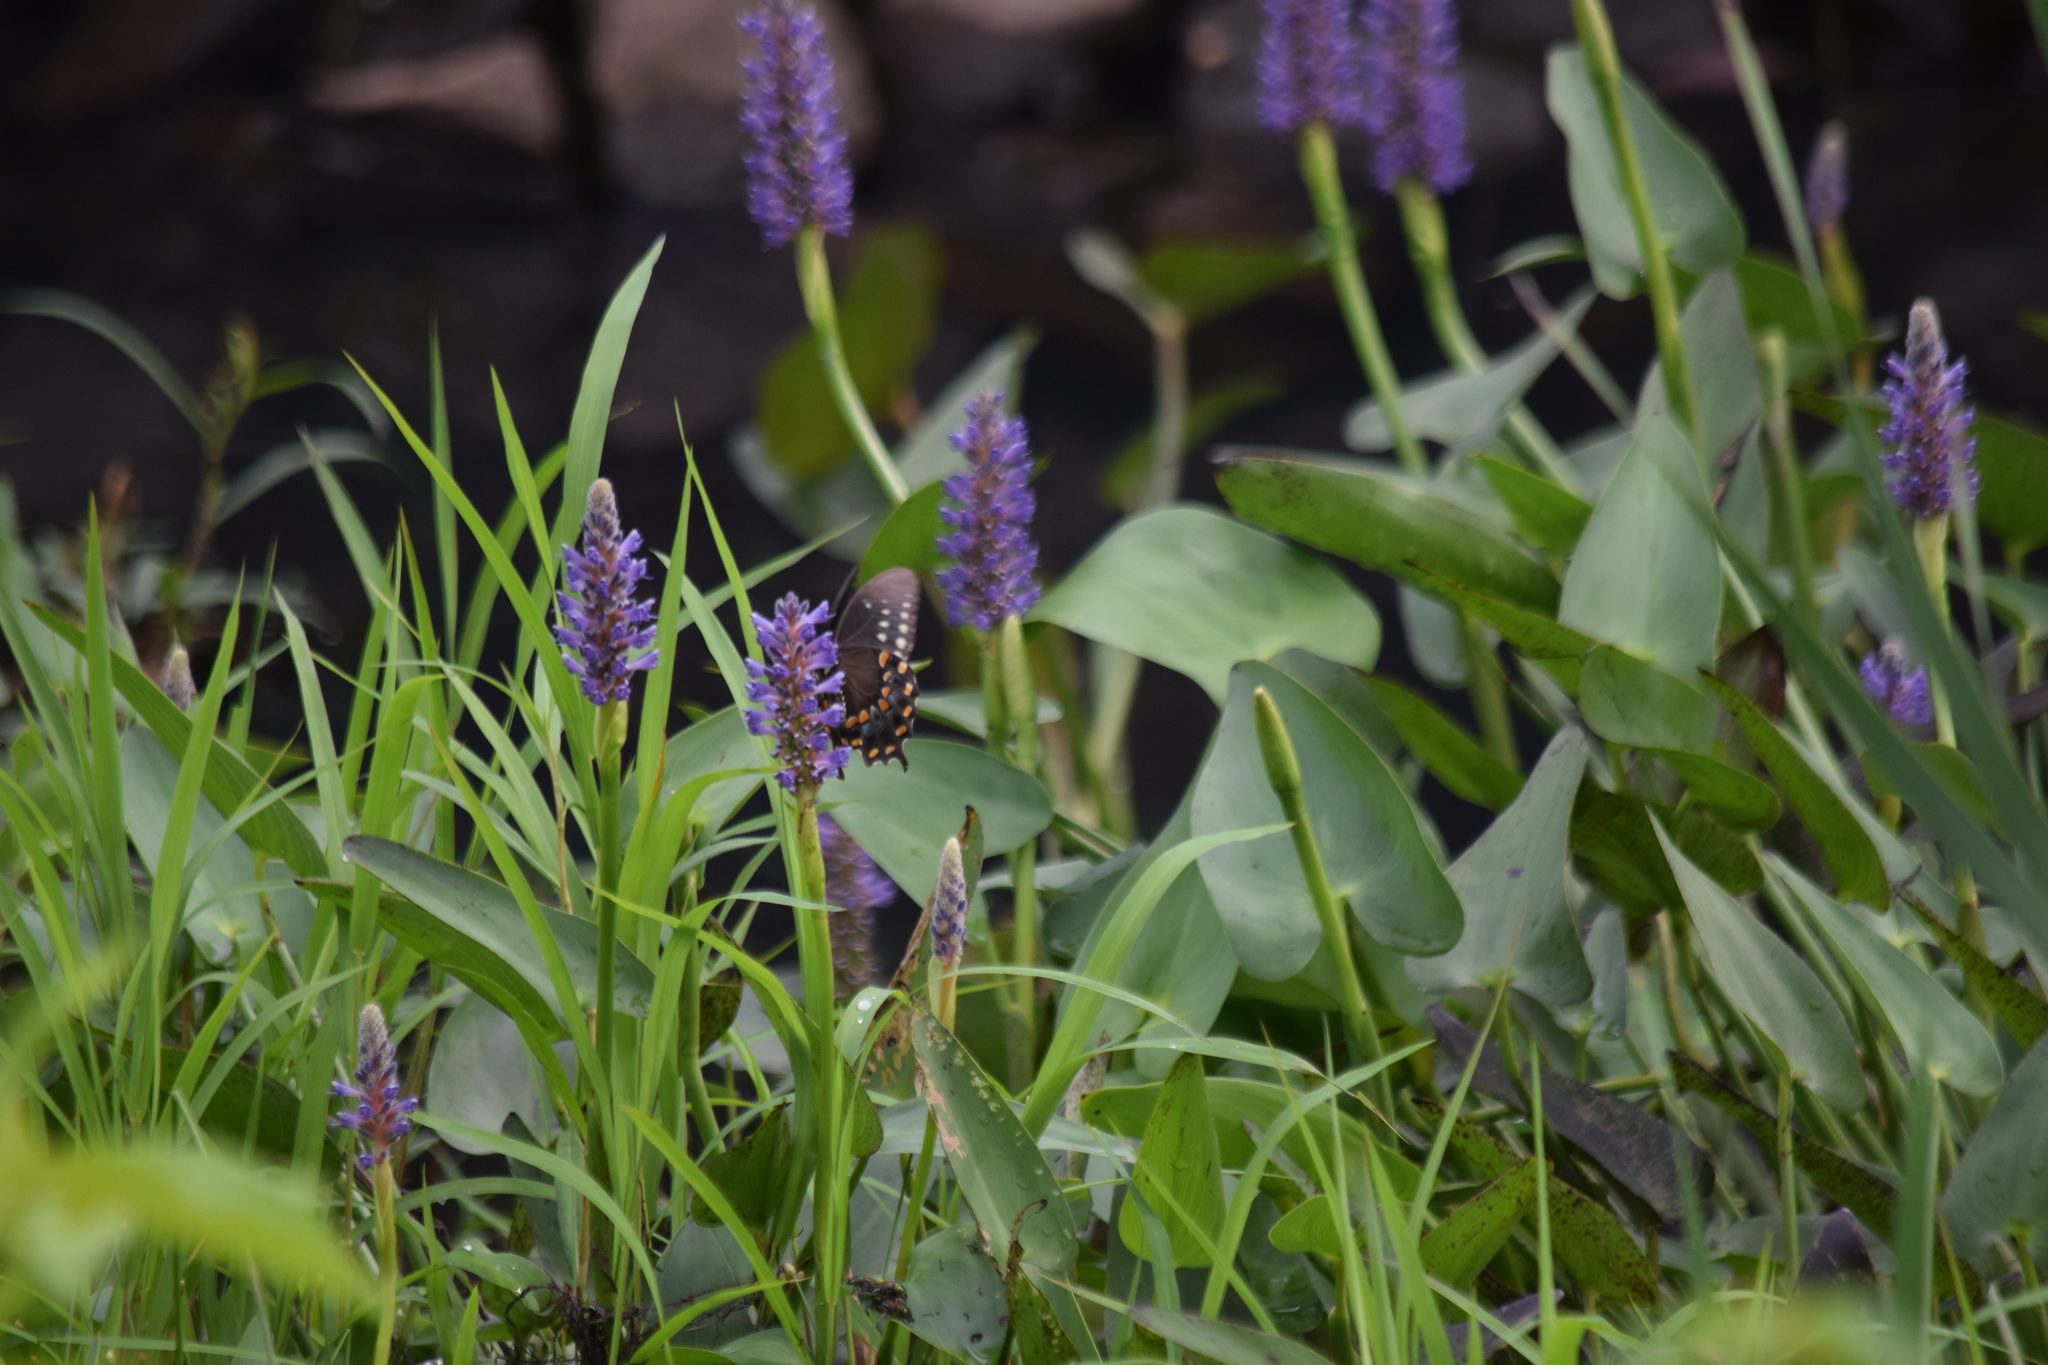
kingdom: Animalia
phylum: Arthropoda
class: Insecta
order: Lepidoptera
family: Papilionidae
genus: Papilio
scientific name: Papilio troilus
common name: Spicebush swallowtail
